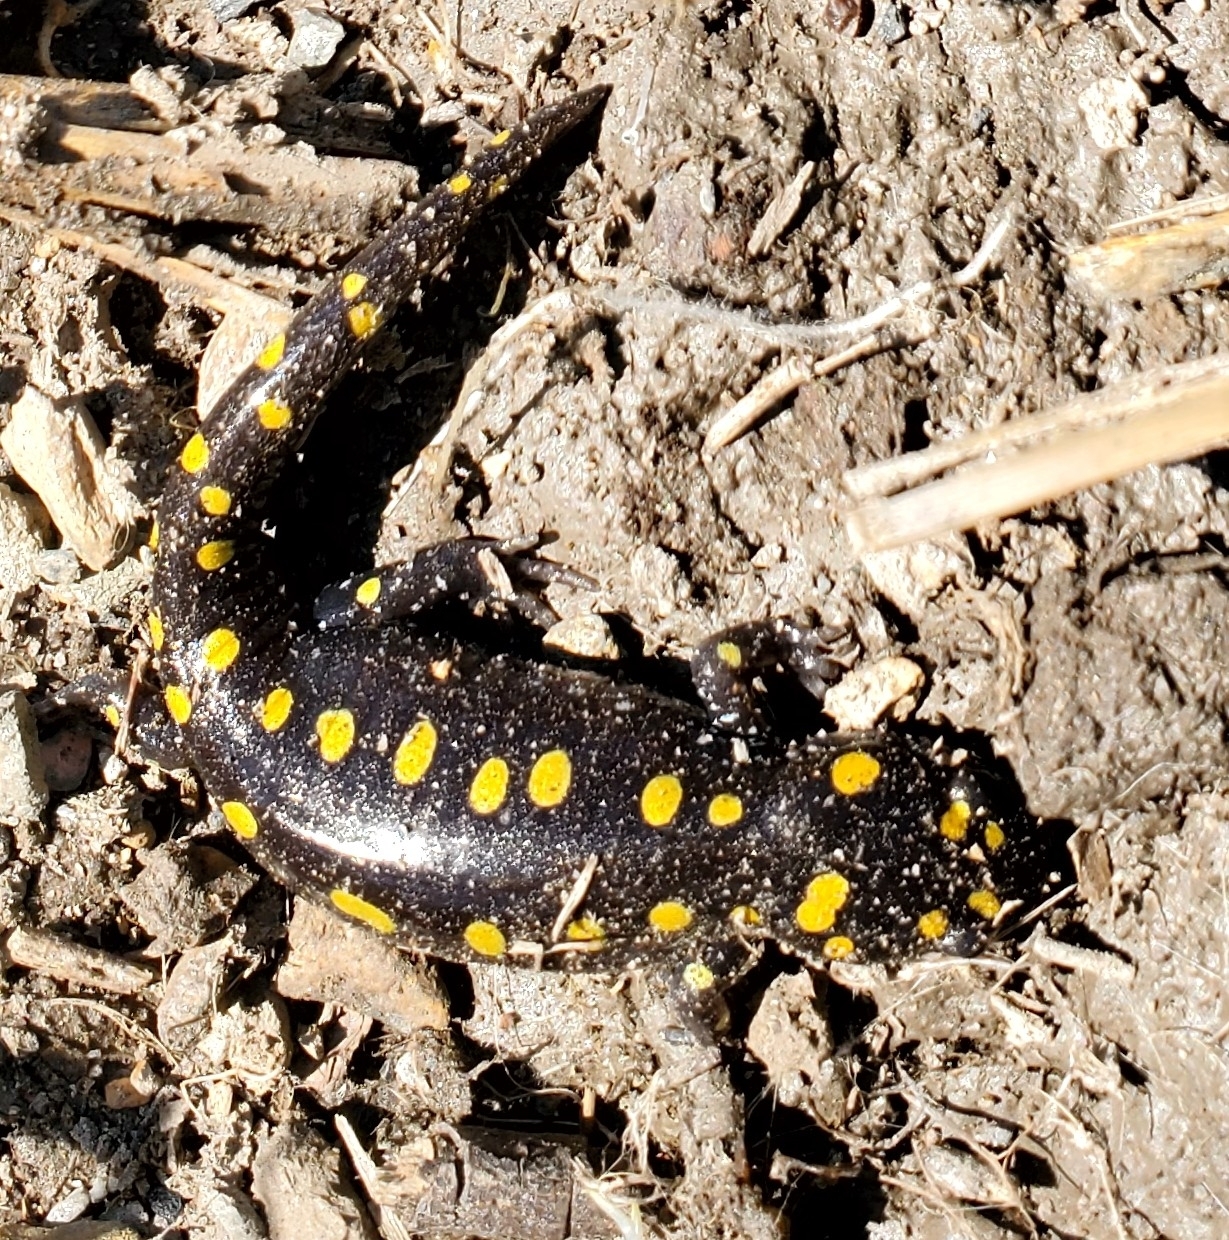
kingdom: Animalia
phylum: Chordata
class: Amphibia
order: Caudata
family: Ambystomatidae
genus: Ambystoma
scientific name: Ambystoma maculatum
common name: Spotted salamander
